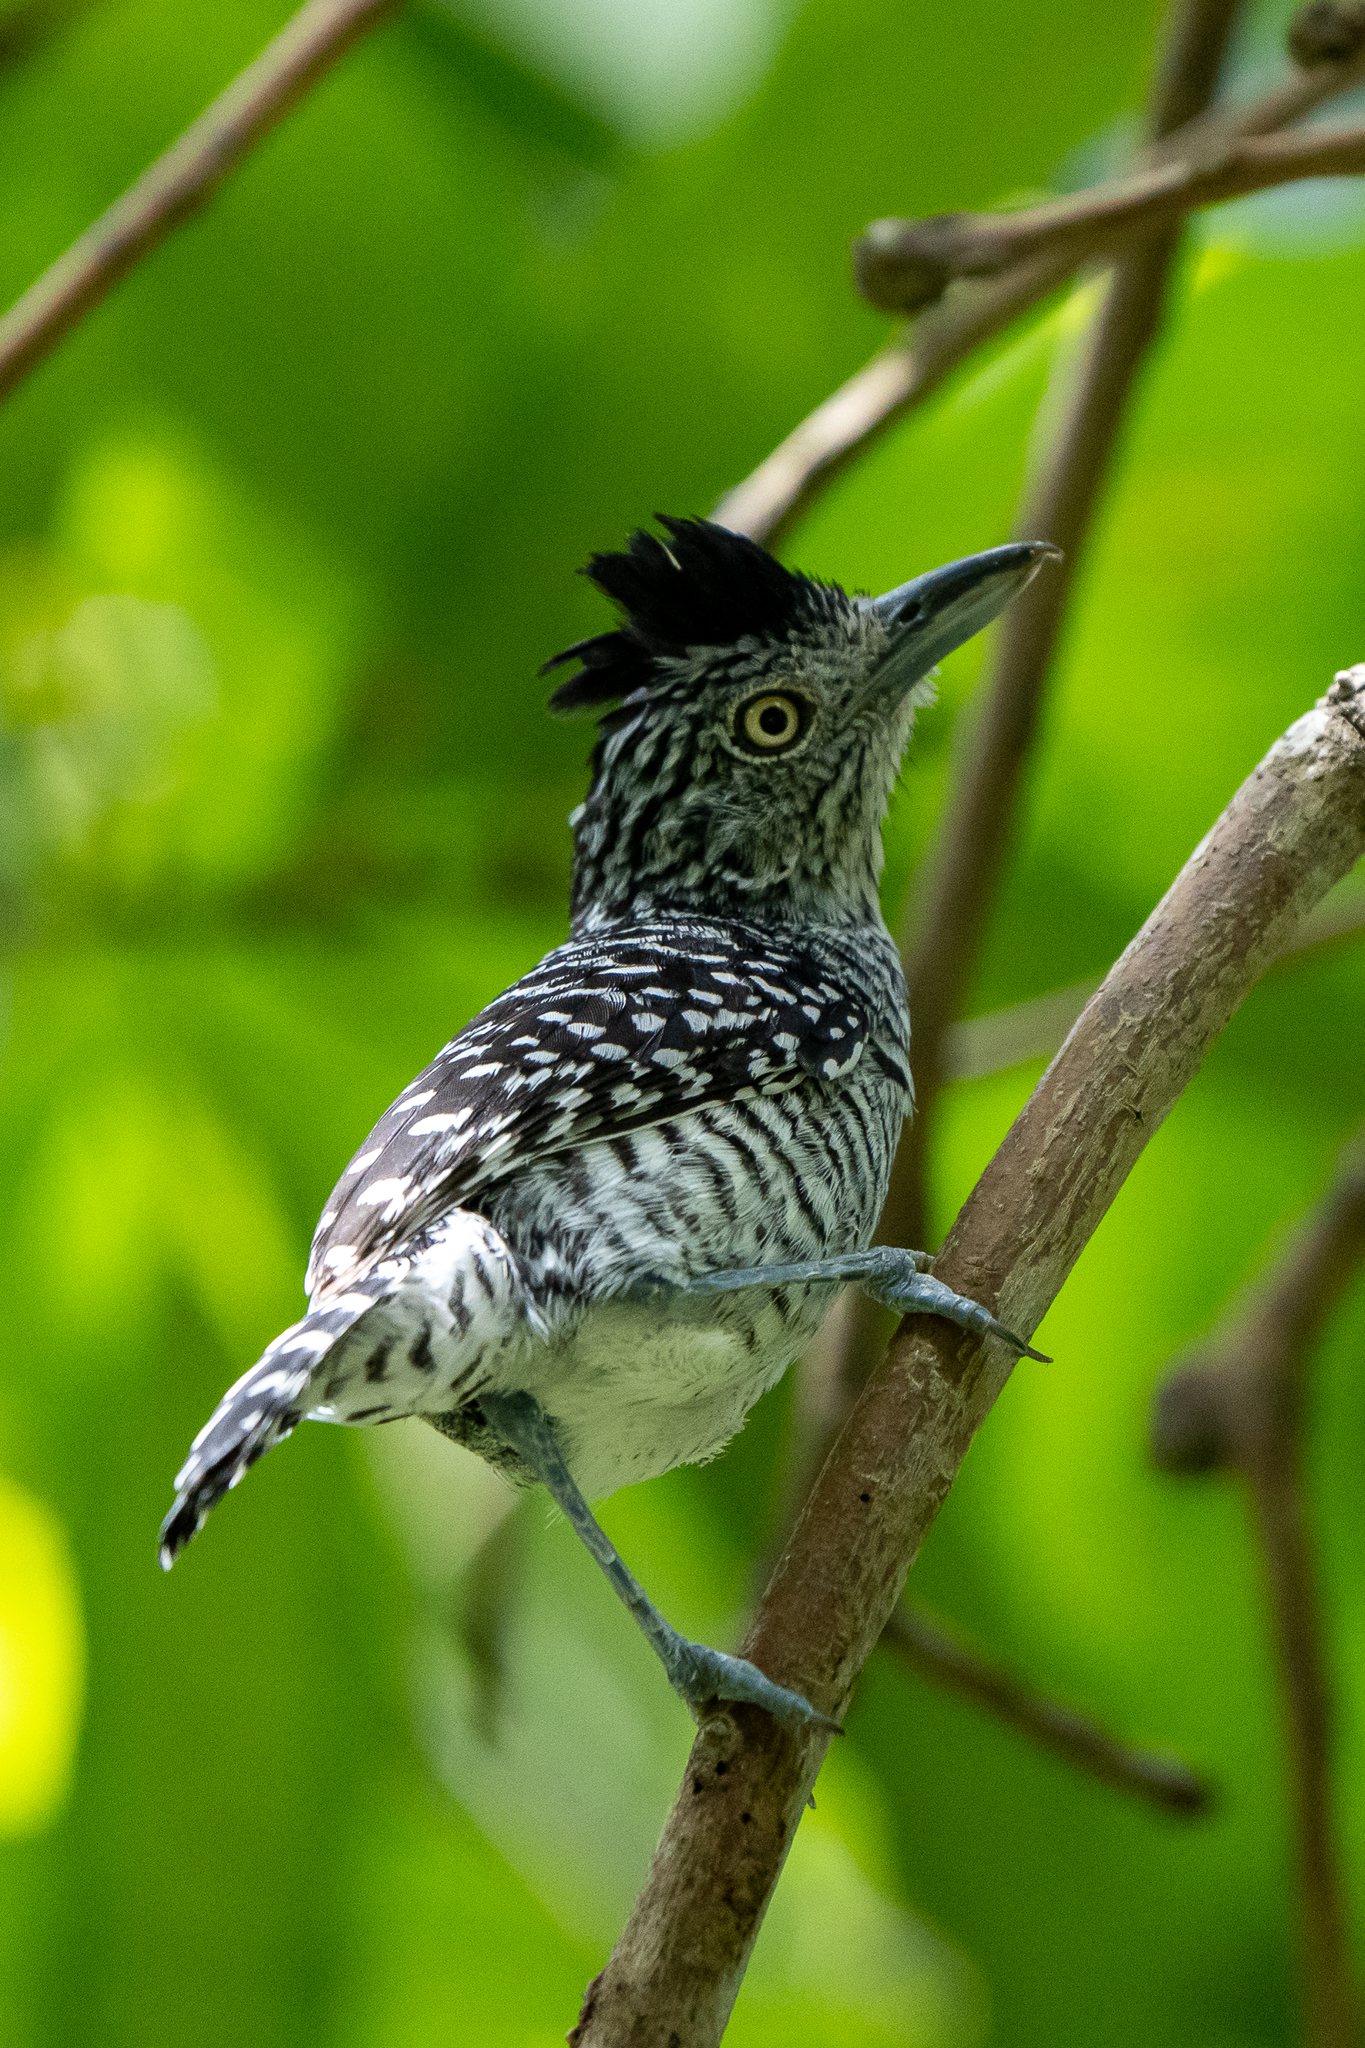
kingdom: Animalia
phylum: Chordata
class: Aves
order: Passeriformes
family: Thamnophilidae
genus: Thamnophilus
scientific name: Thamnophilus doliatus
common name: Barred antshrike
